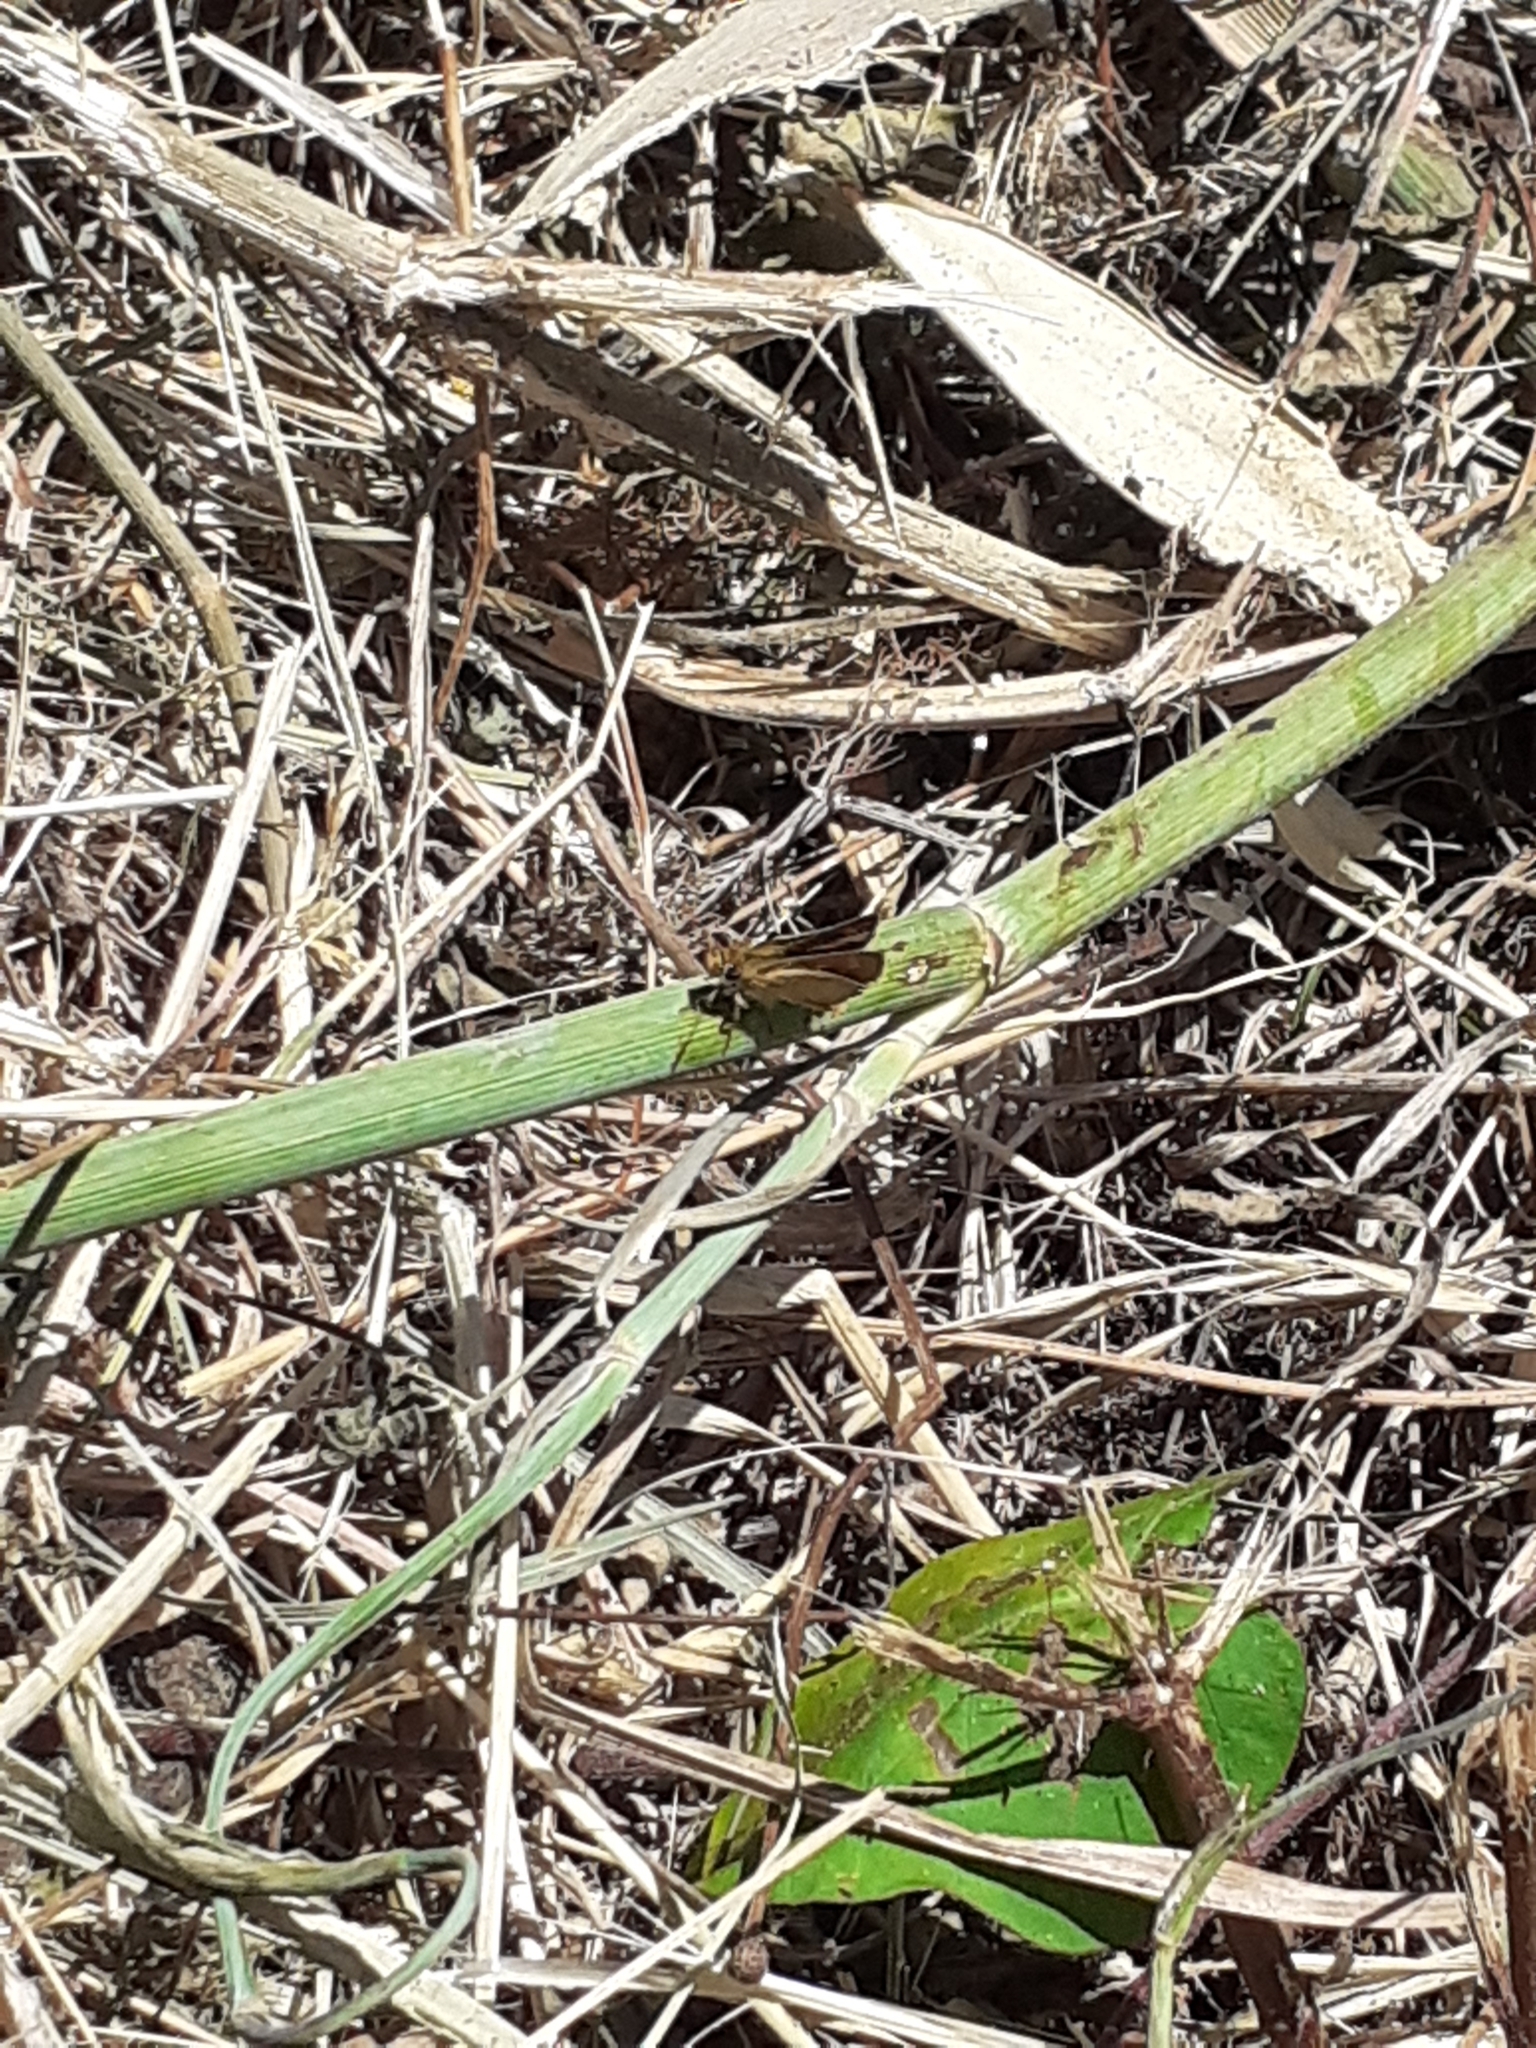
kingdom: Animalia
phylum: Arthropoda
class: Insecta
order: Lepidoptera
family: Hesperiidae
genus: Thymelicus
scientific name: Thymelicus acteon
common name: Lulworth skipper
